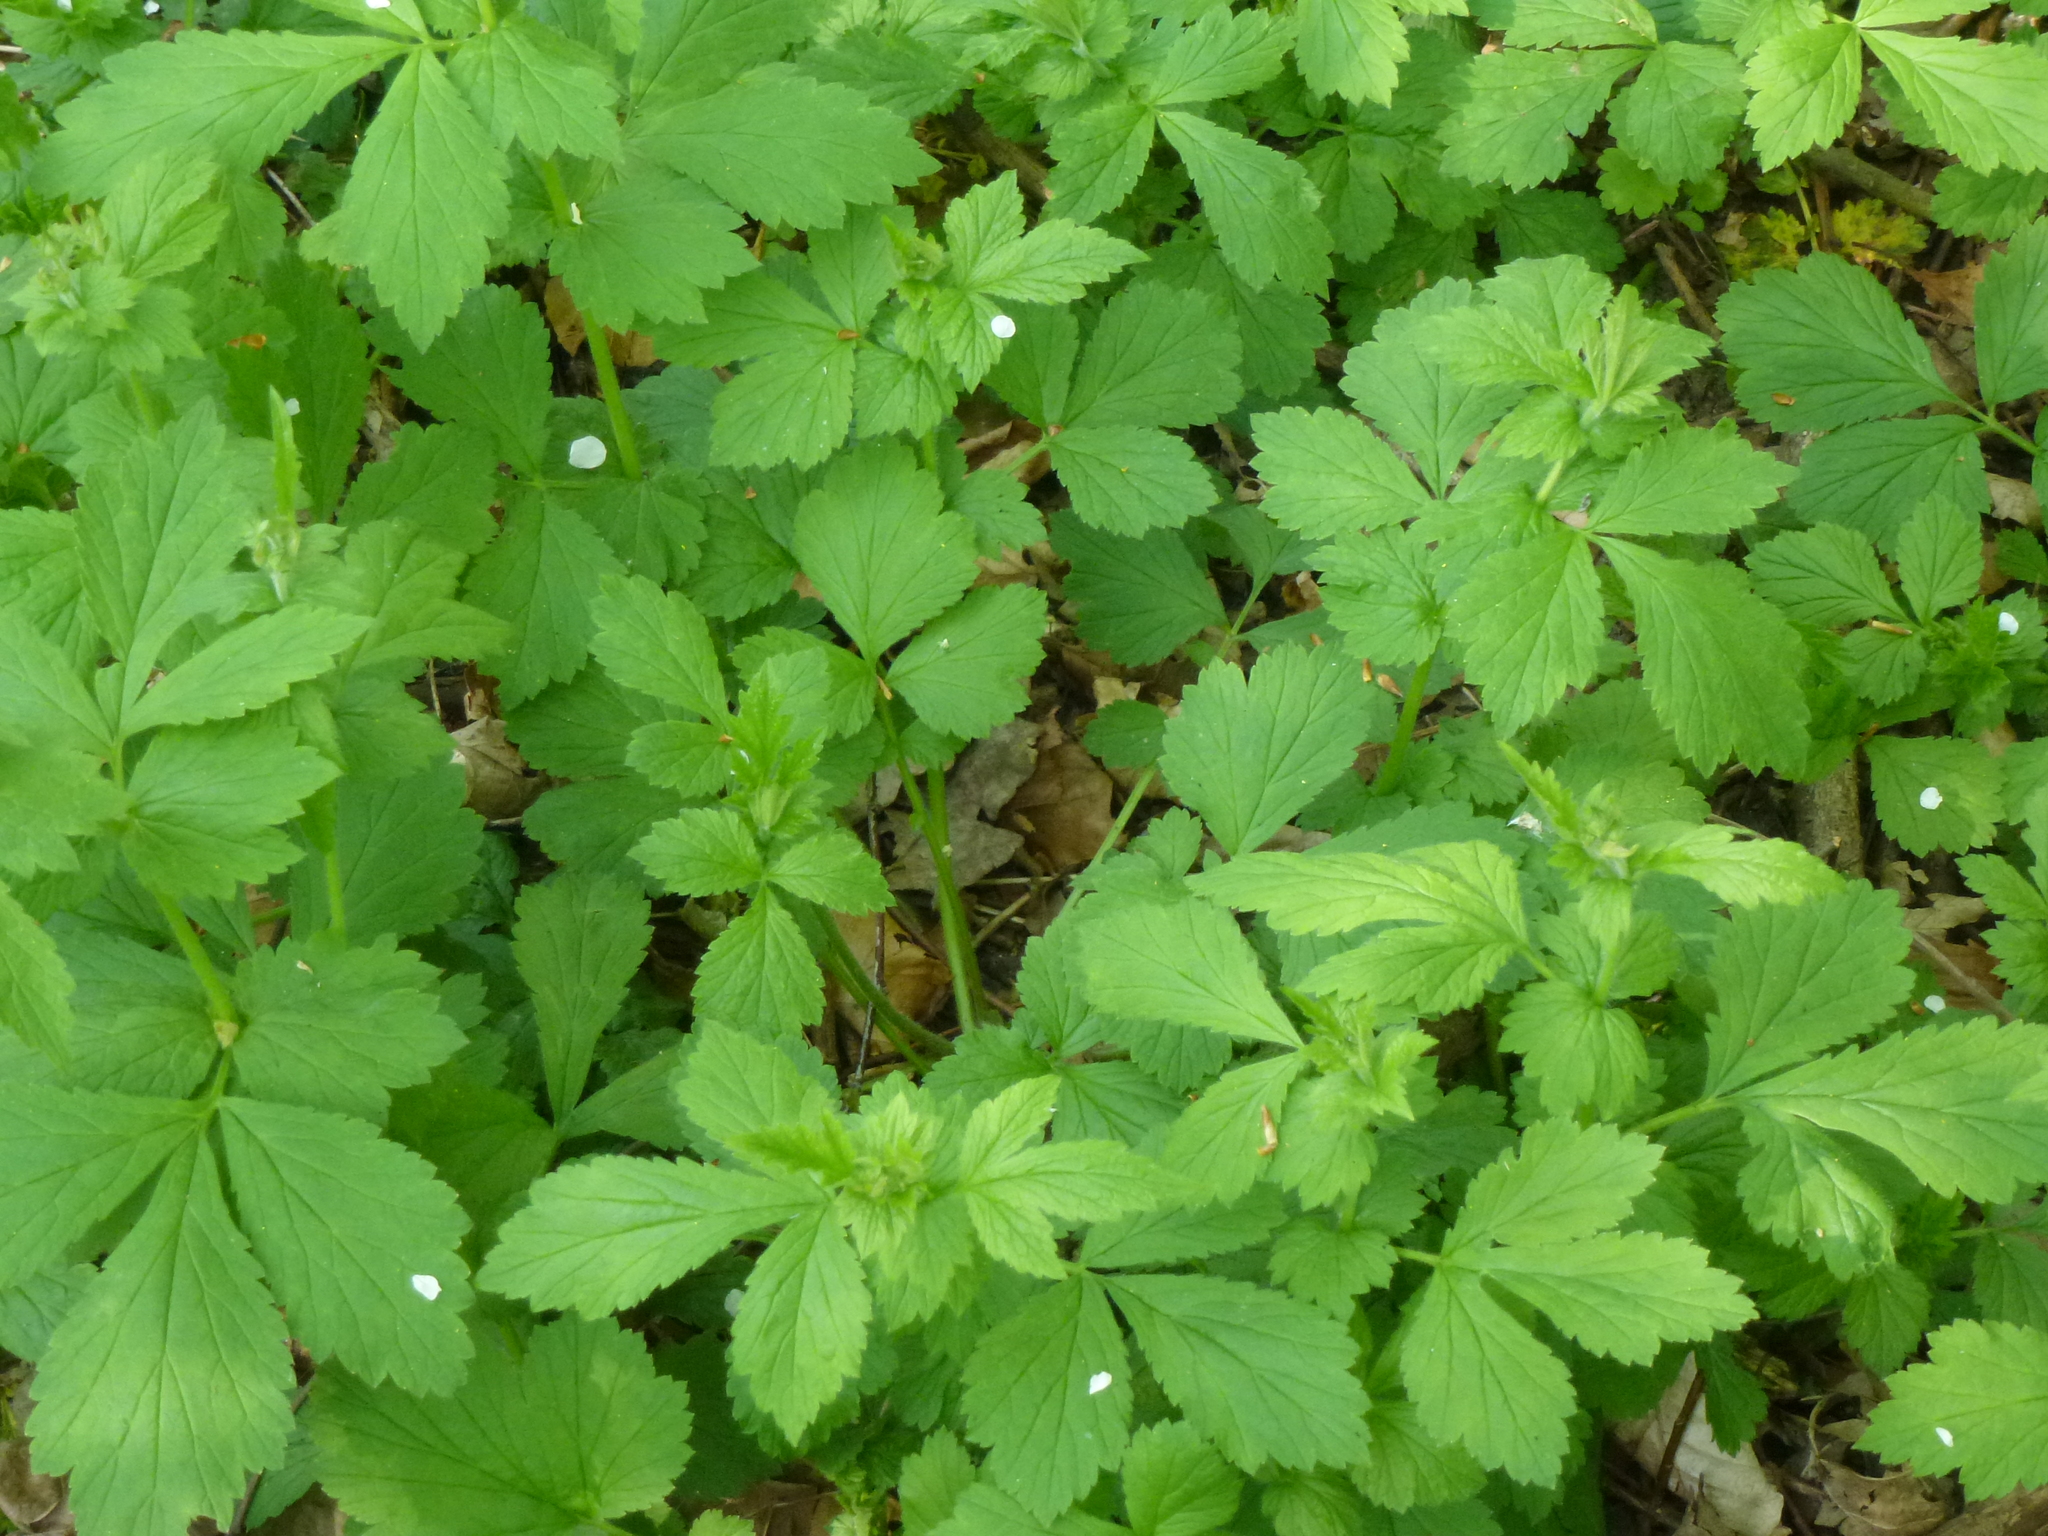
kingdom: Plantae
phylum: Tracheophyta
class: Magnoliopsida
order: Rosales
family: Rosaceae
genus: Geum
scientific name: Geum urbanum
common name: Wood avens
